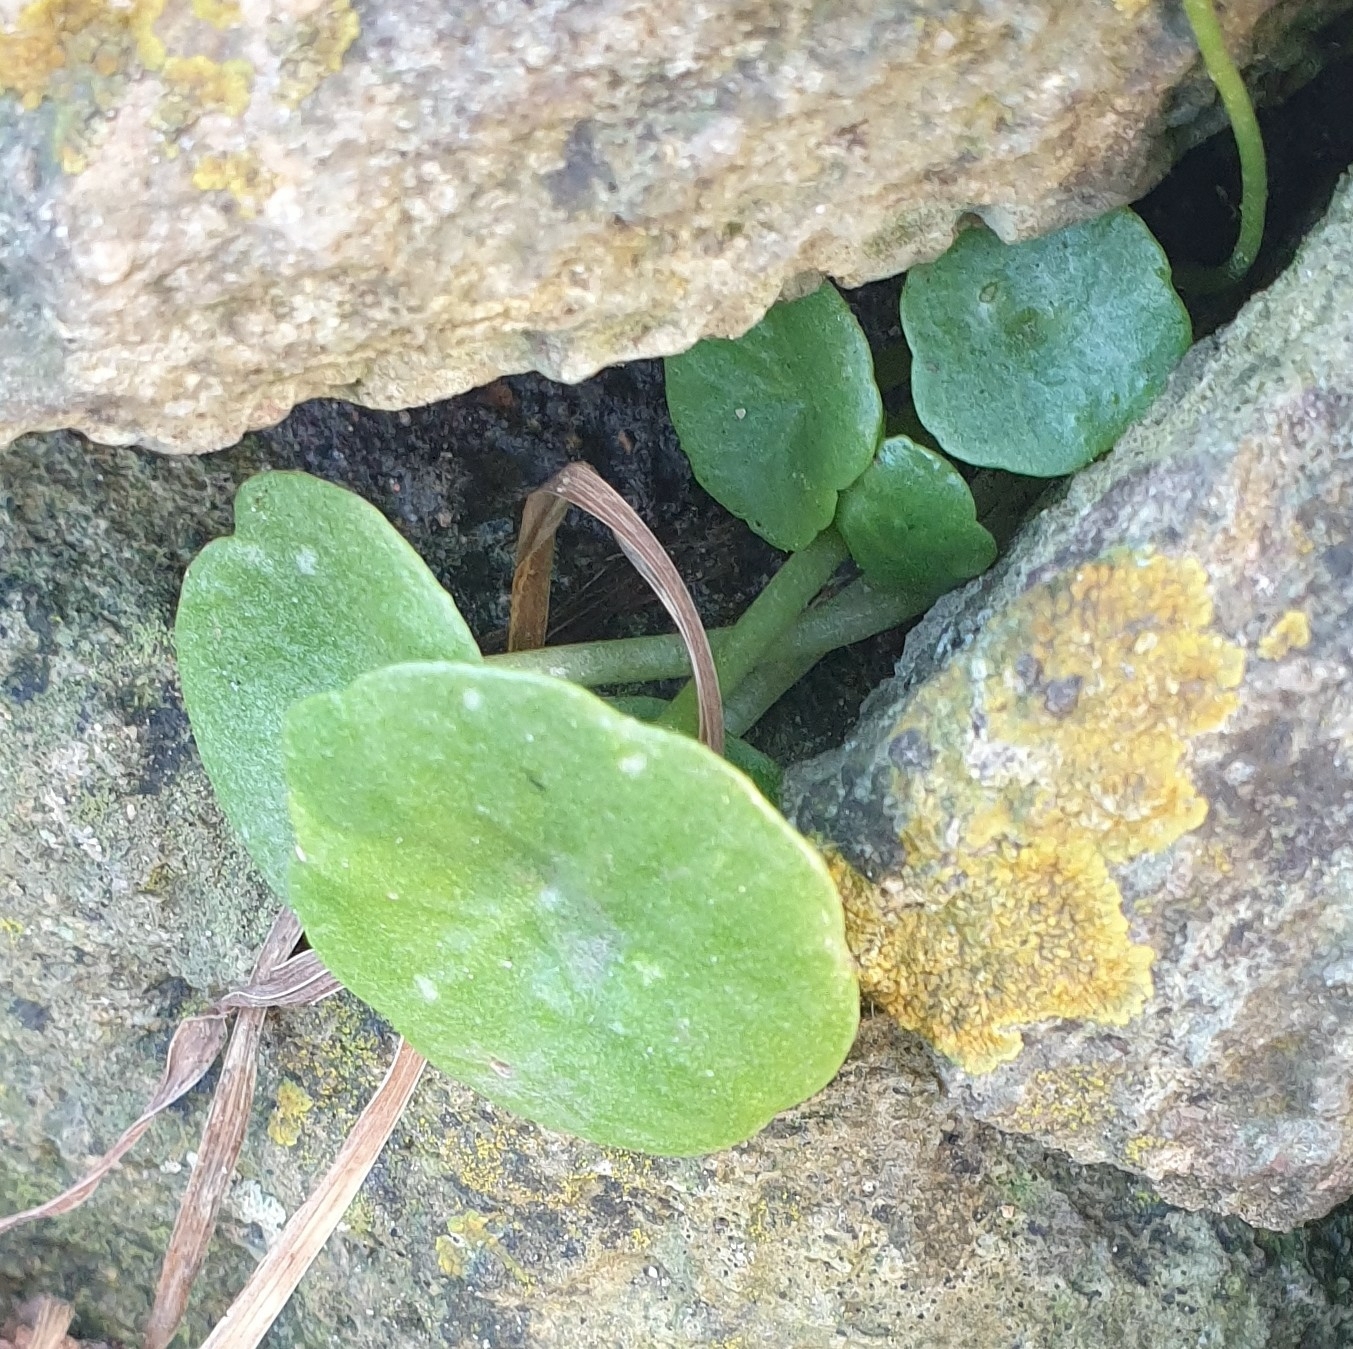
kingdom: Plantae
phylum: Tracheophyta
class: Magnoliopsida
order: Saxifragales
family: Crassulaceae
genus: Umbilicus
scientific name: Umbilicus rupestris
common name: Navelwort
